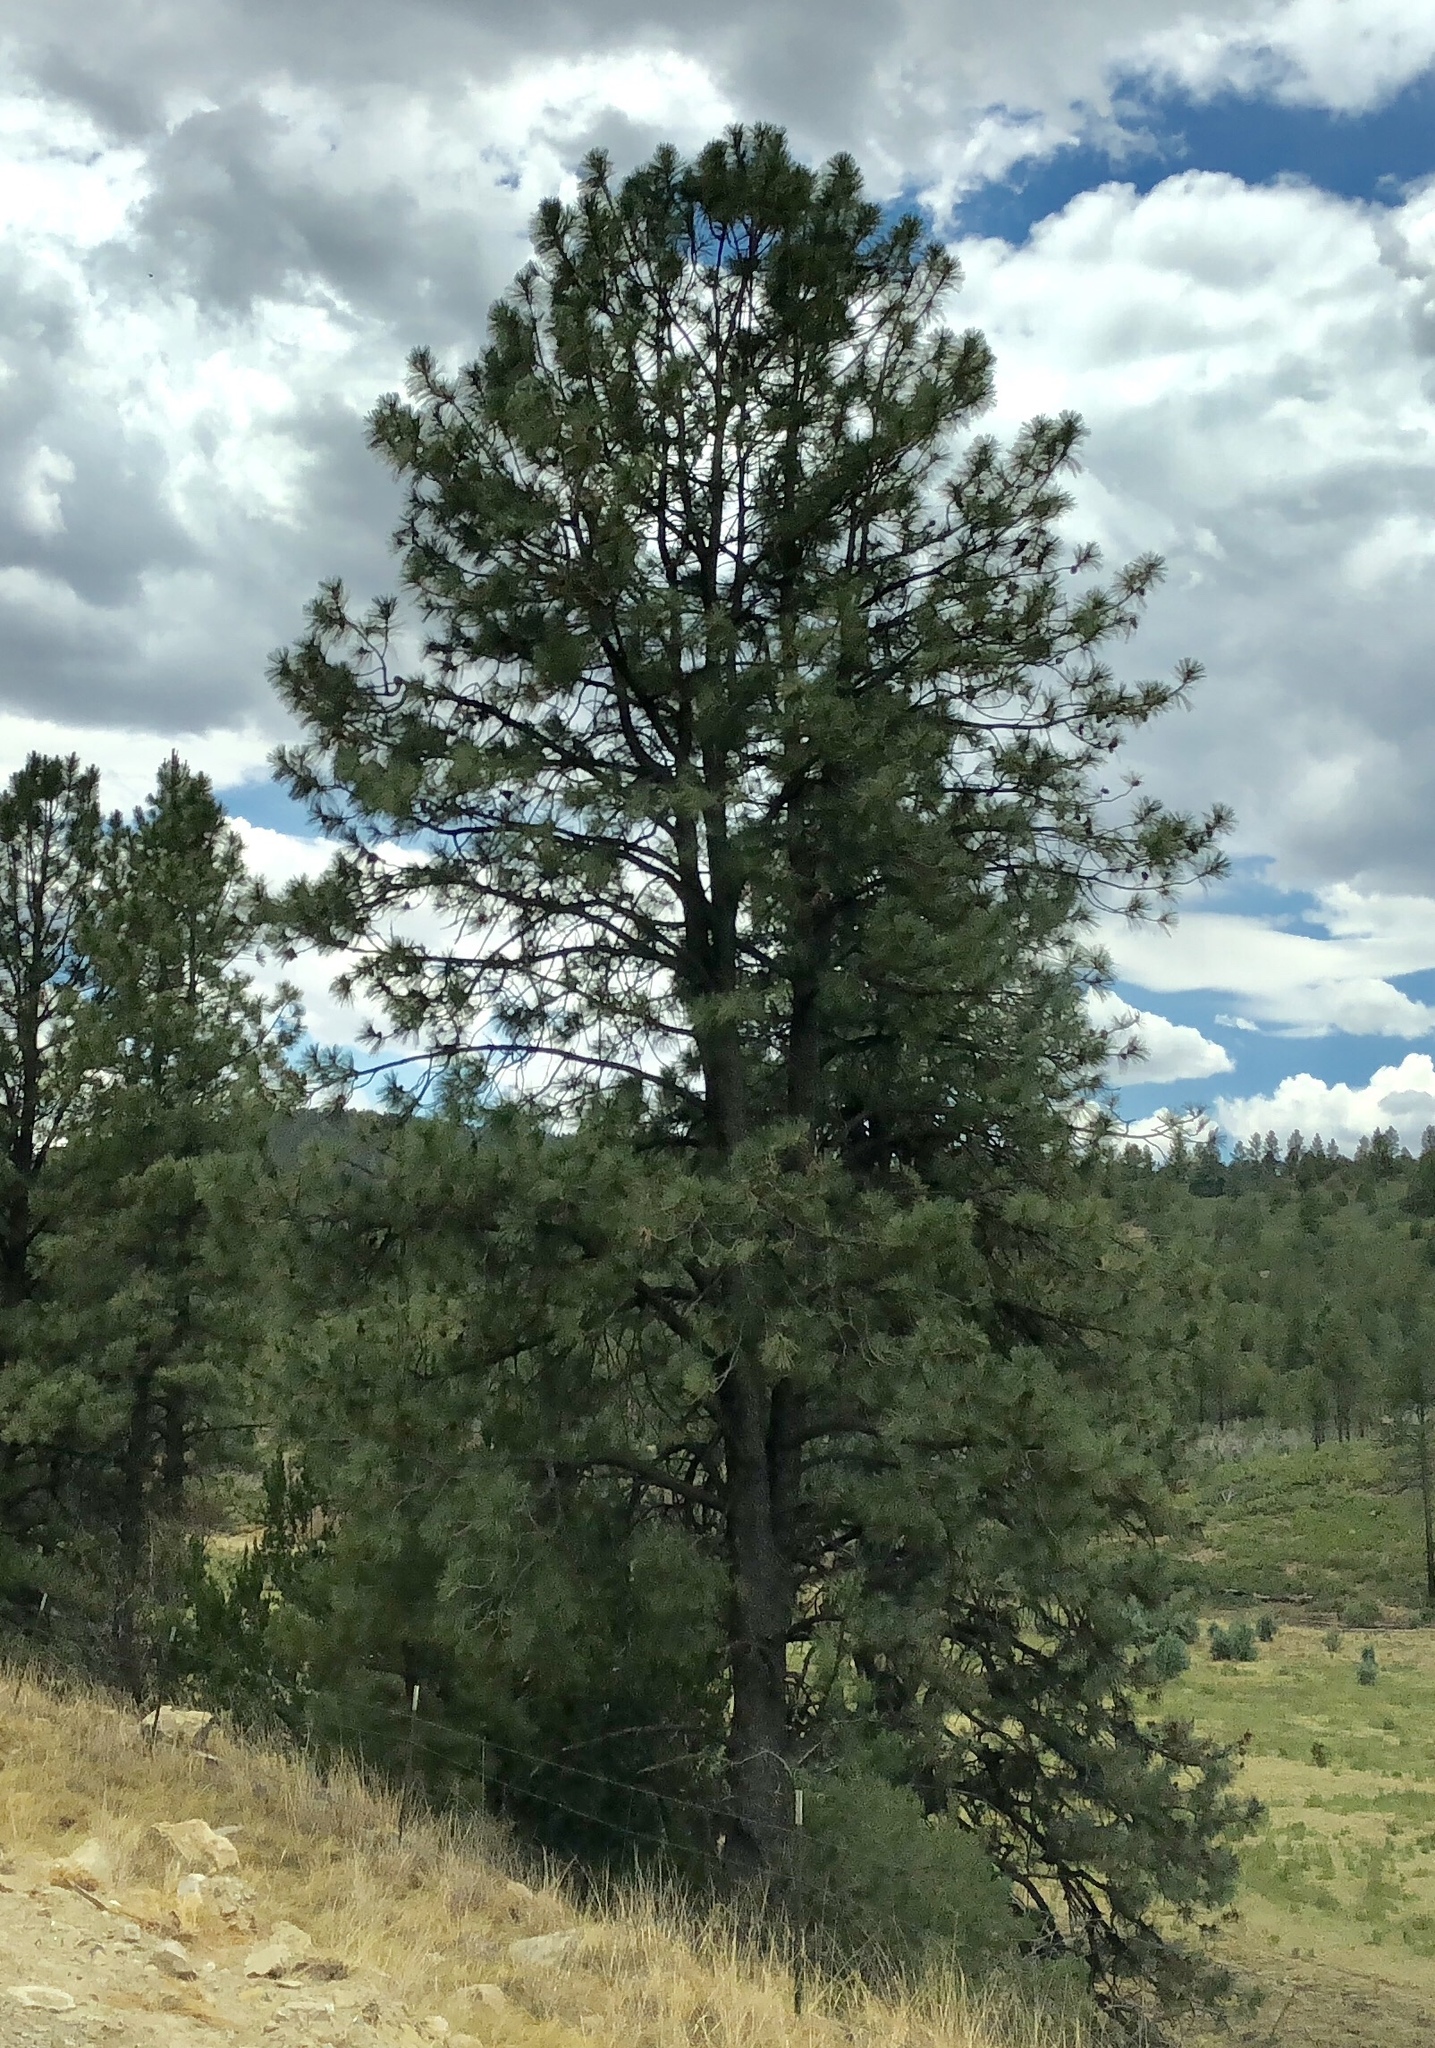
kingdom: Plantae
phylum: Tracheophyta
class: Pinopsida
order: Pinales
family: Pinaceae
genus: Pinus
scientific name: Pinus ponderosa
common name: Western yellow-pine
